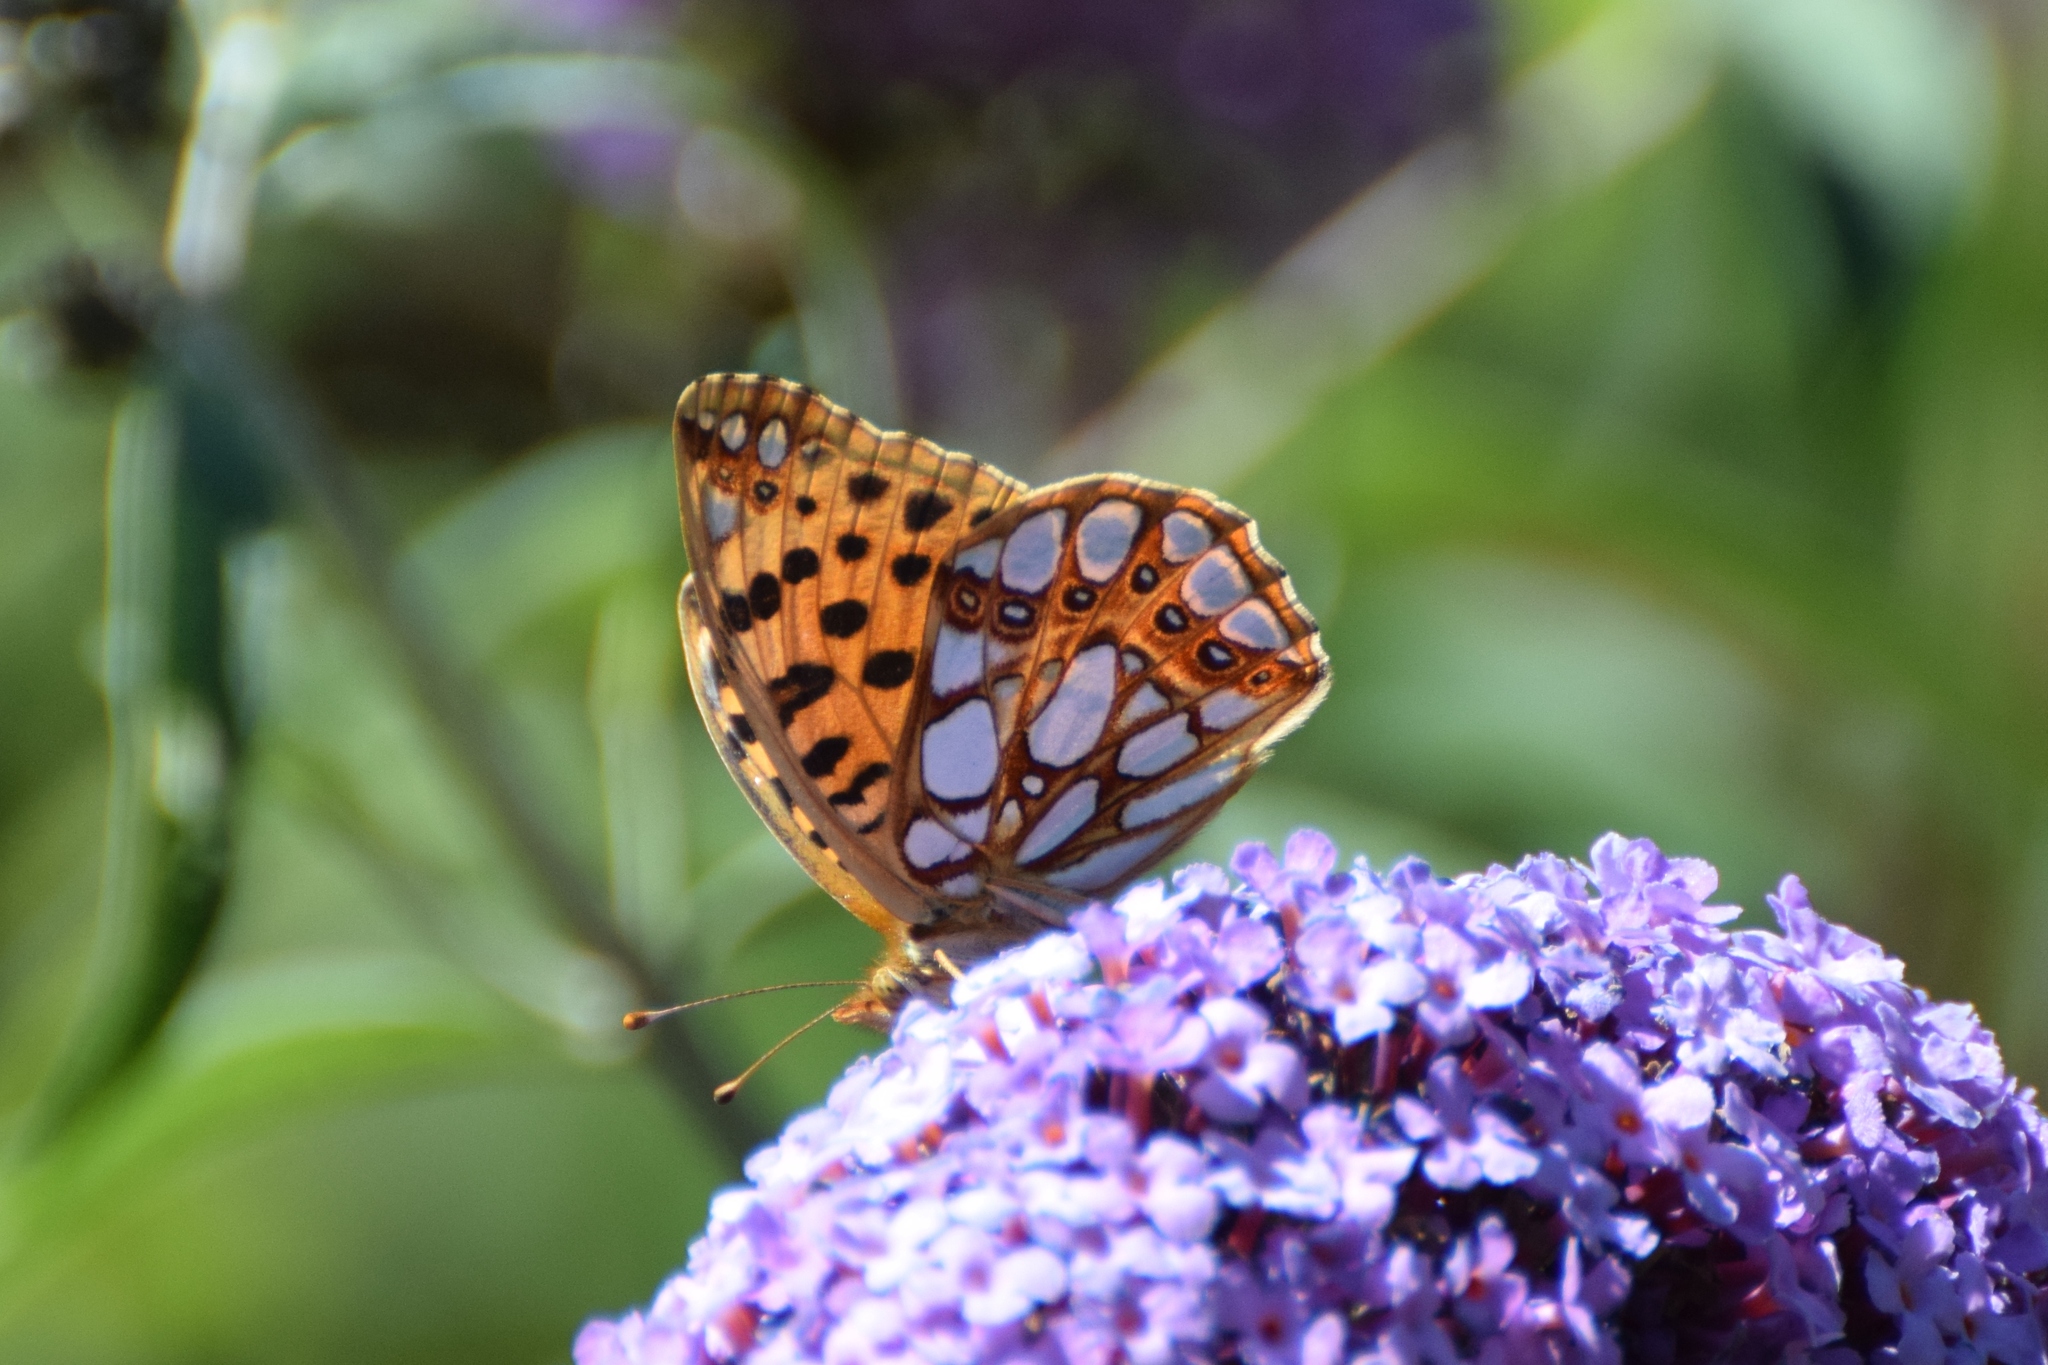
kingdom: Animalia
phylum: Arthropoda
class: Insecta
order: Lepidoptera
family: Nymphalidae
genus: Issoria
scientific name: Issoria lathonia
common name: Queen of spain fritillary
